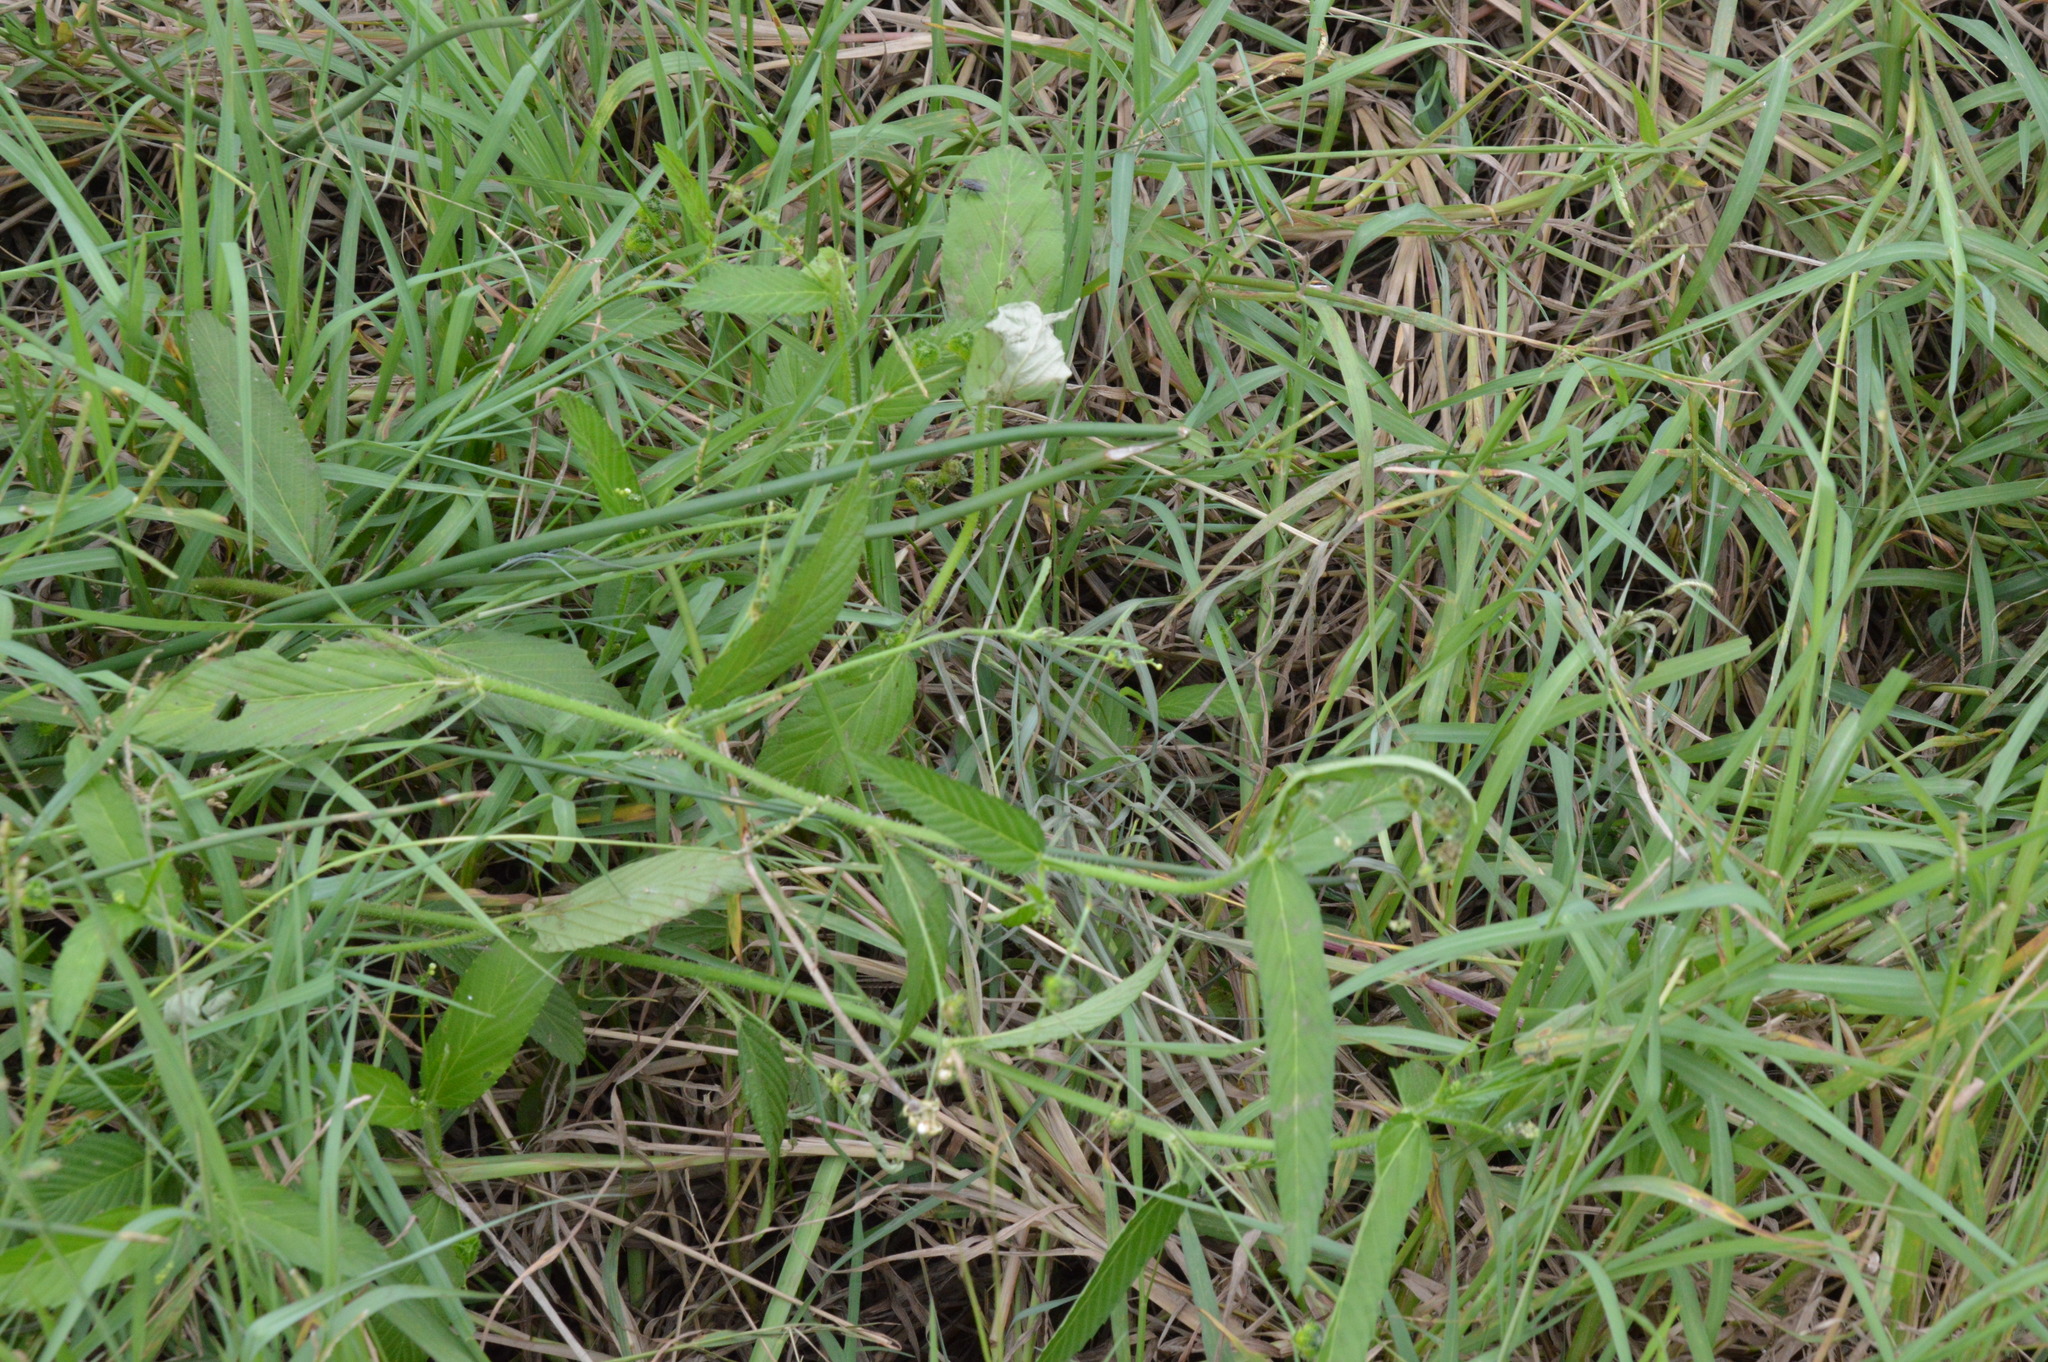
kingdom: Plantae
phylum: Tracheophyta
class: Magnoliopsida
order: Malpighiales
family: Euphorbiaceae
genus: Caperonia
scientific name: Caperonia palustris
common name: Sacatrapo
